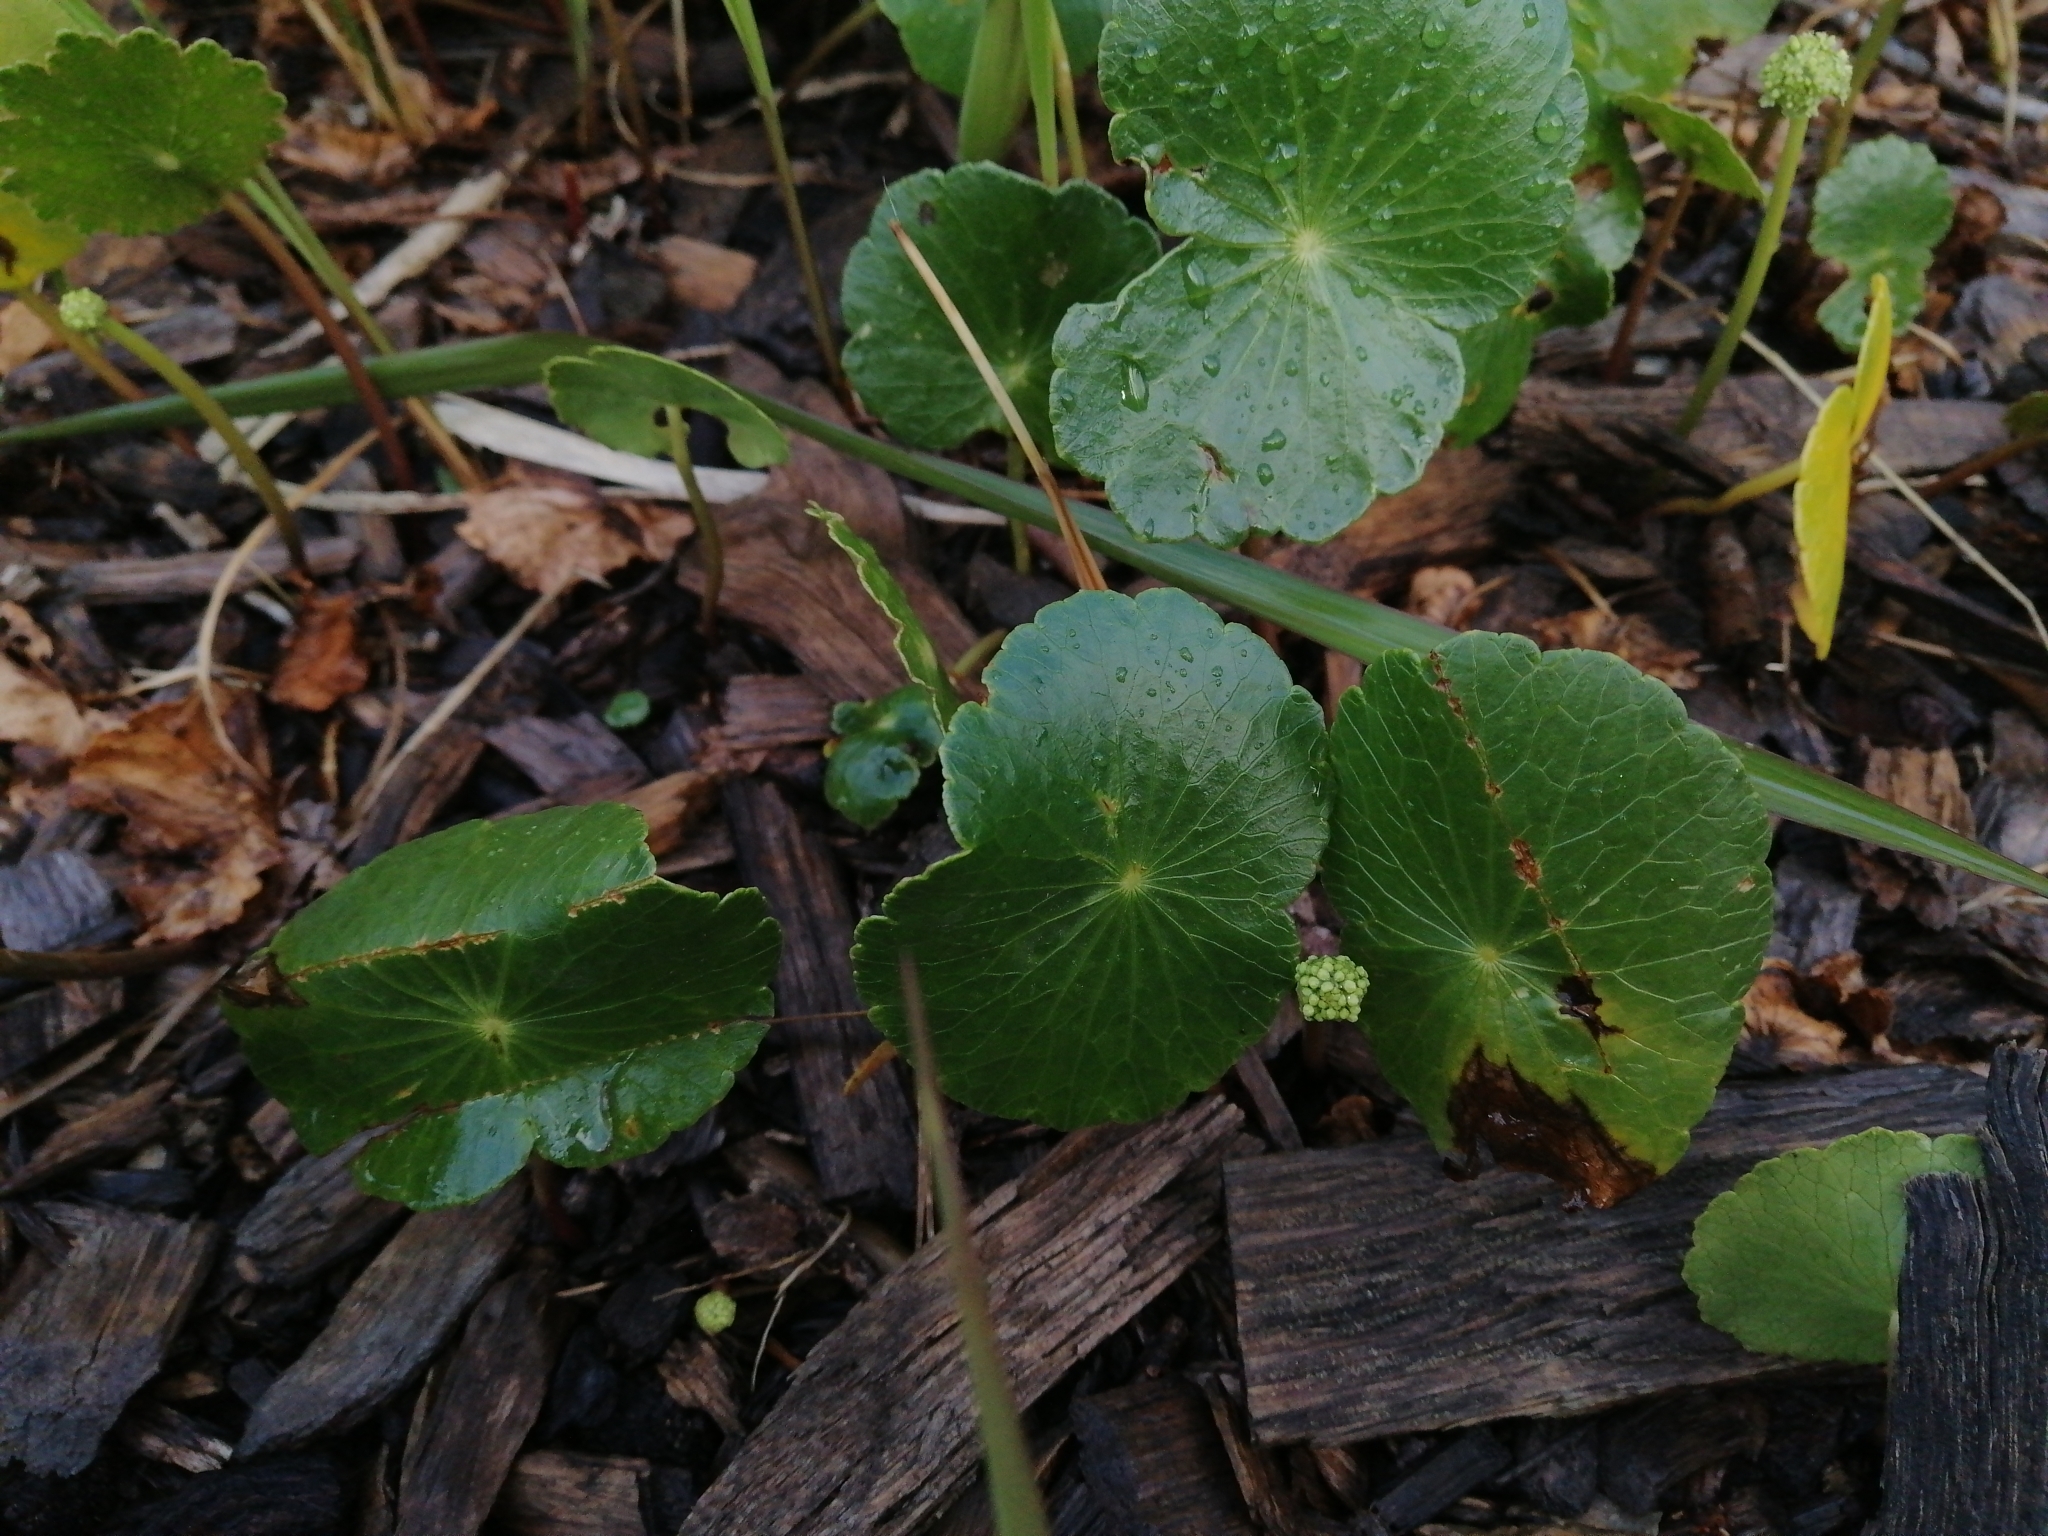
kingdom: Plantae
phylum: Tracheophyta
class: Magnoliopsida
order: Apiales
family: Araliaceae
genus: Hydrocotyle
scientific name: Hydrocotyle bonariensis
